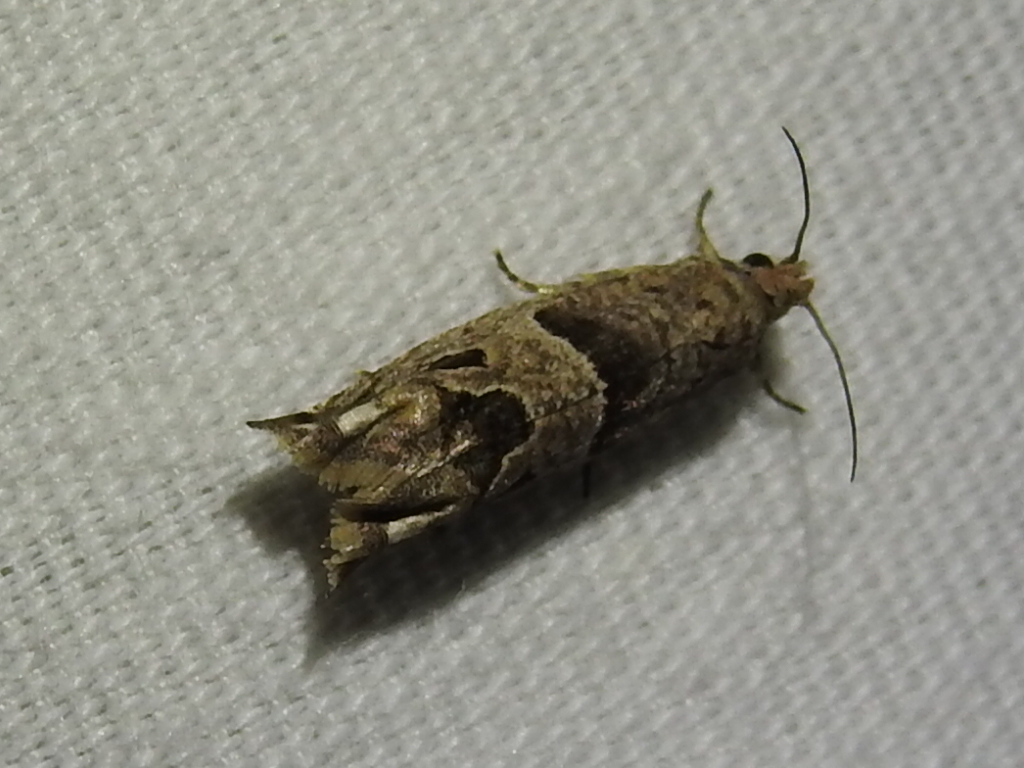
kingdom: Animalia
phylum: Arthropoda
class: Insecta
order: Lepidoptera
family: Tortricidae
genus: Sonia
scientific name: Sonia constrictana
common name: Constricted sonia moth
